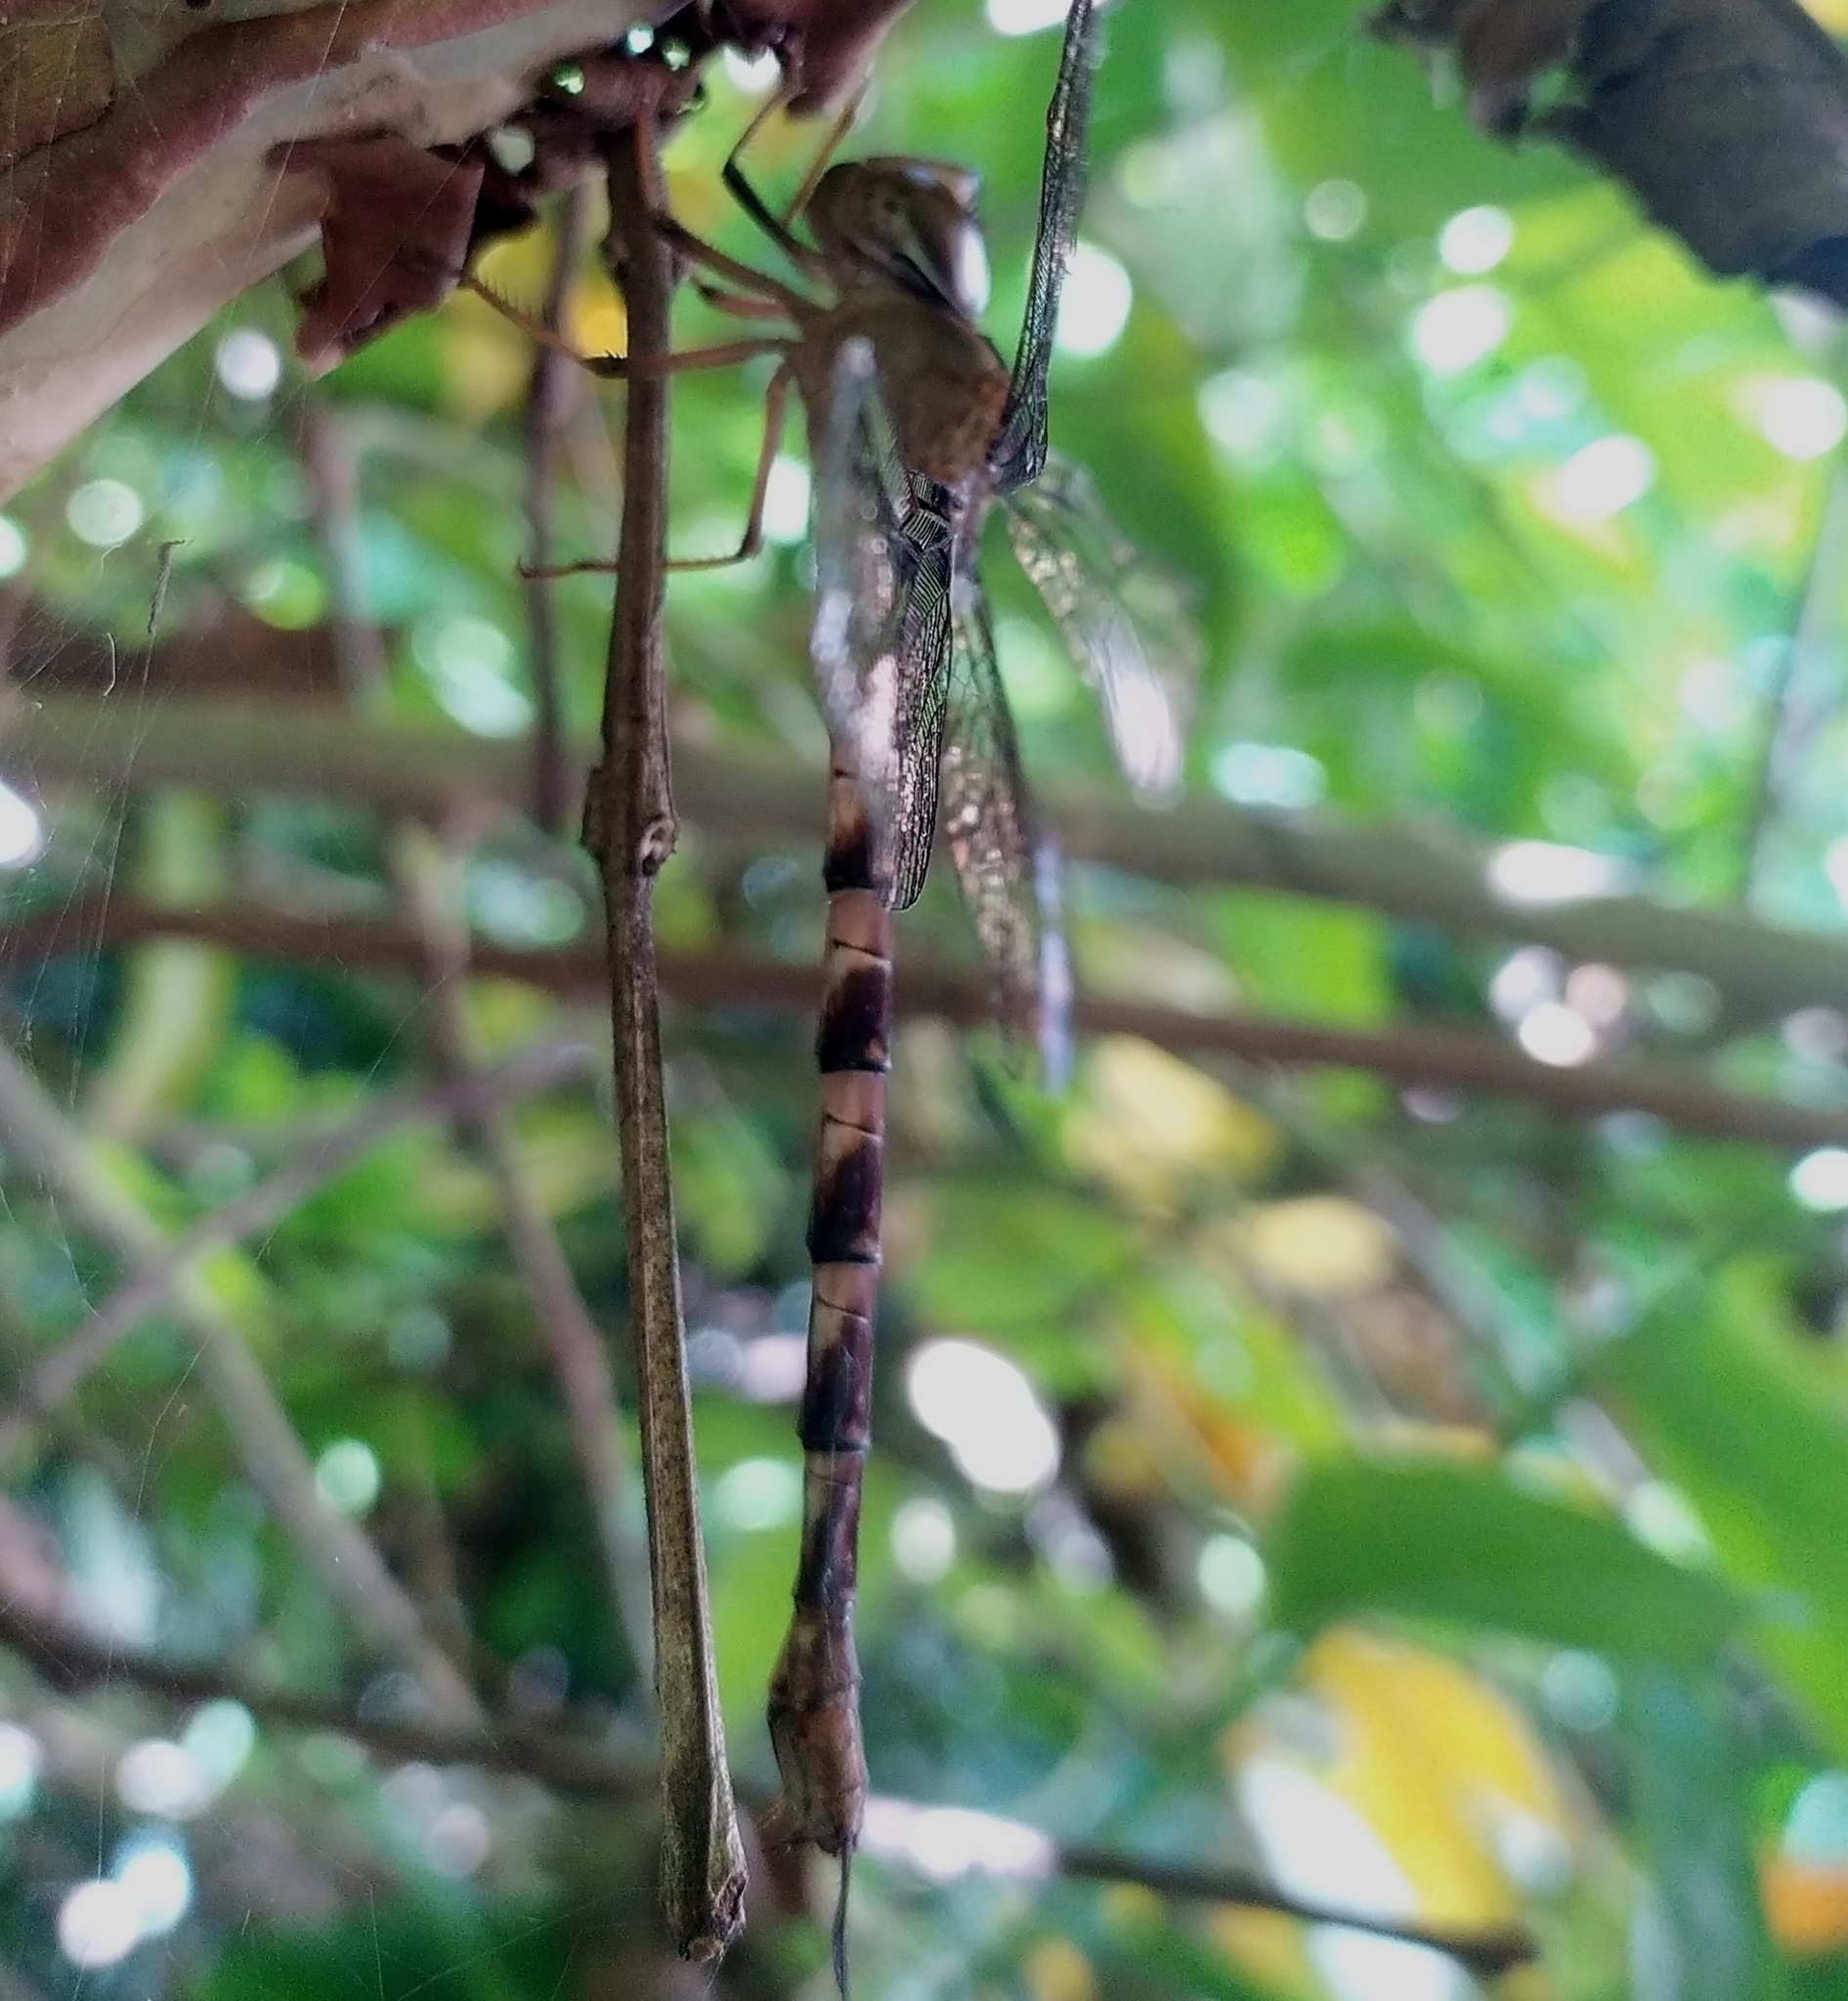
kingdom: Animalia
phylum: Arthropoda
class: Insecta
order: Odonata
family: Aeshnidae
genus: Gynacantha
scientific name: Gynacantha dravida
